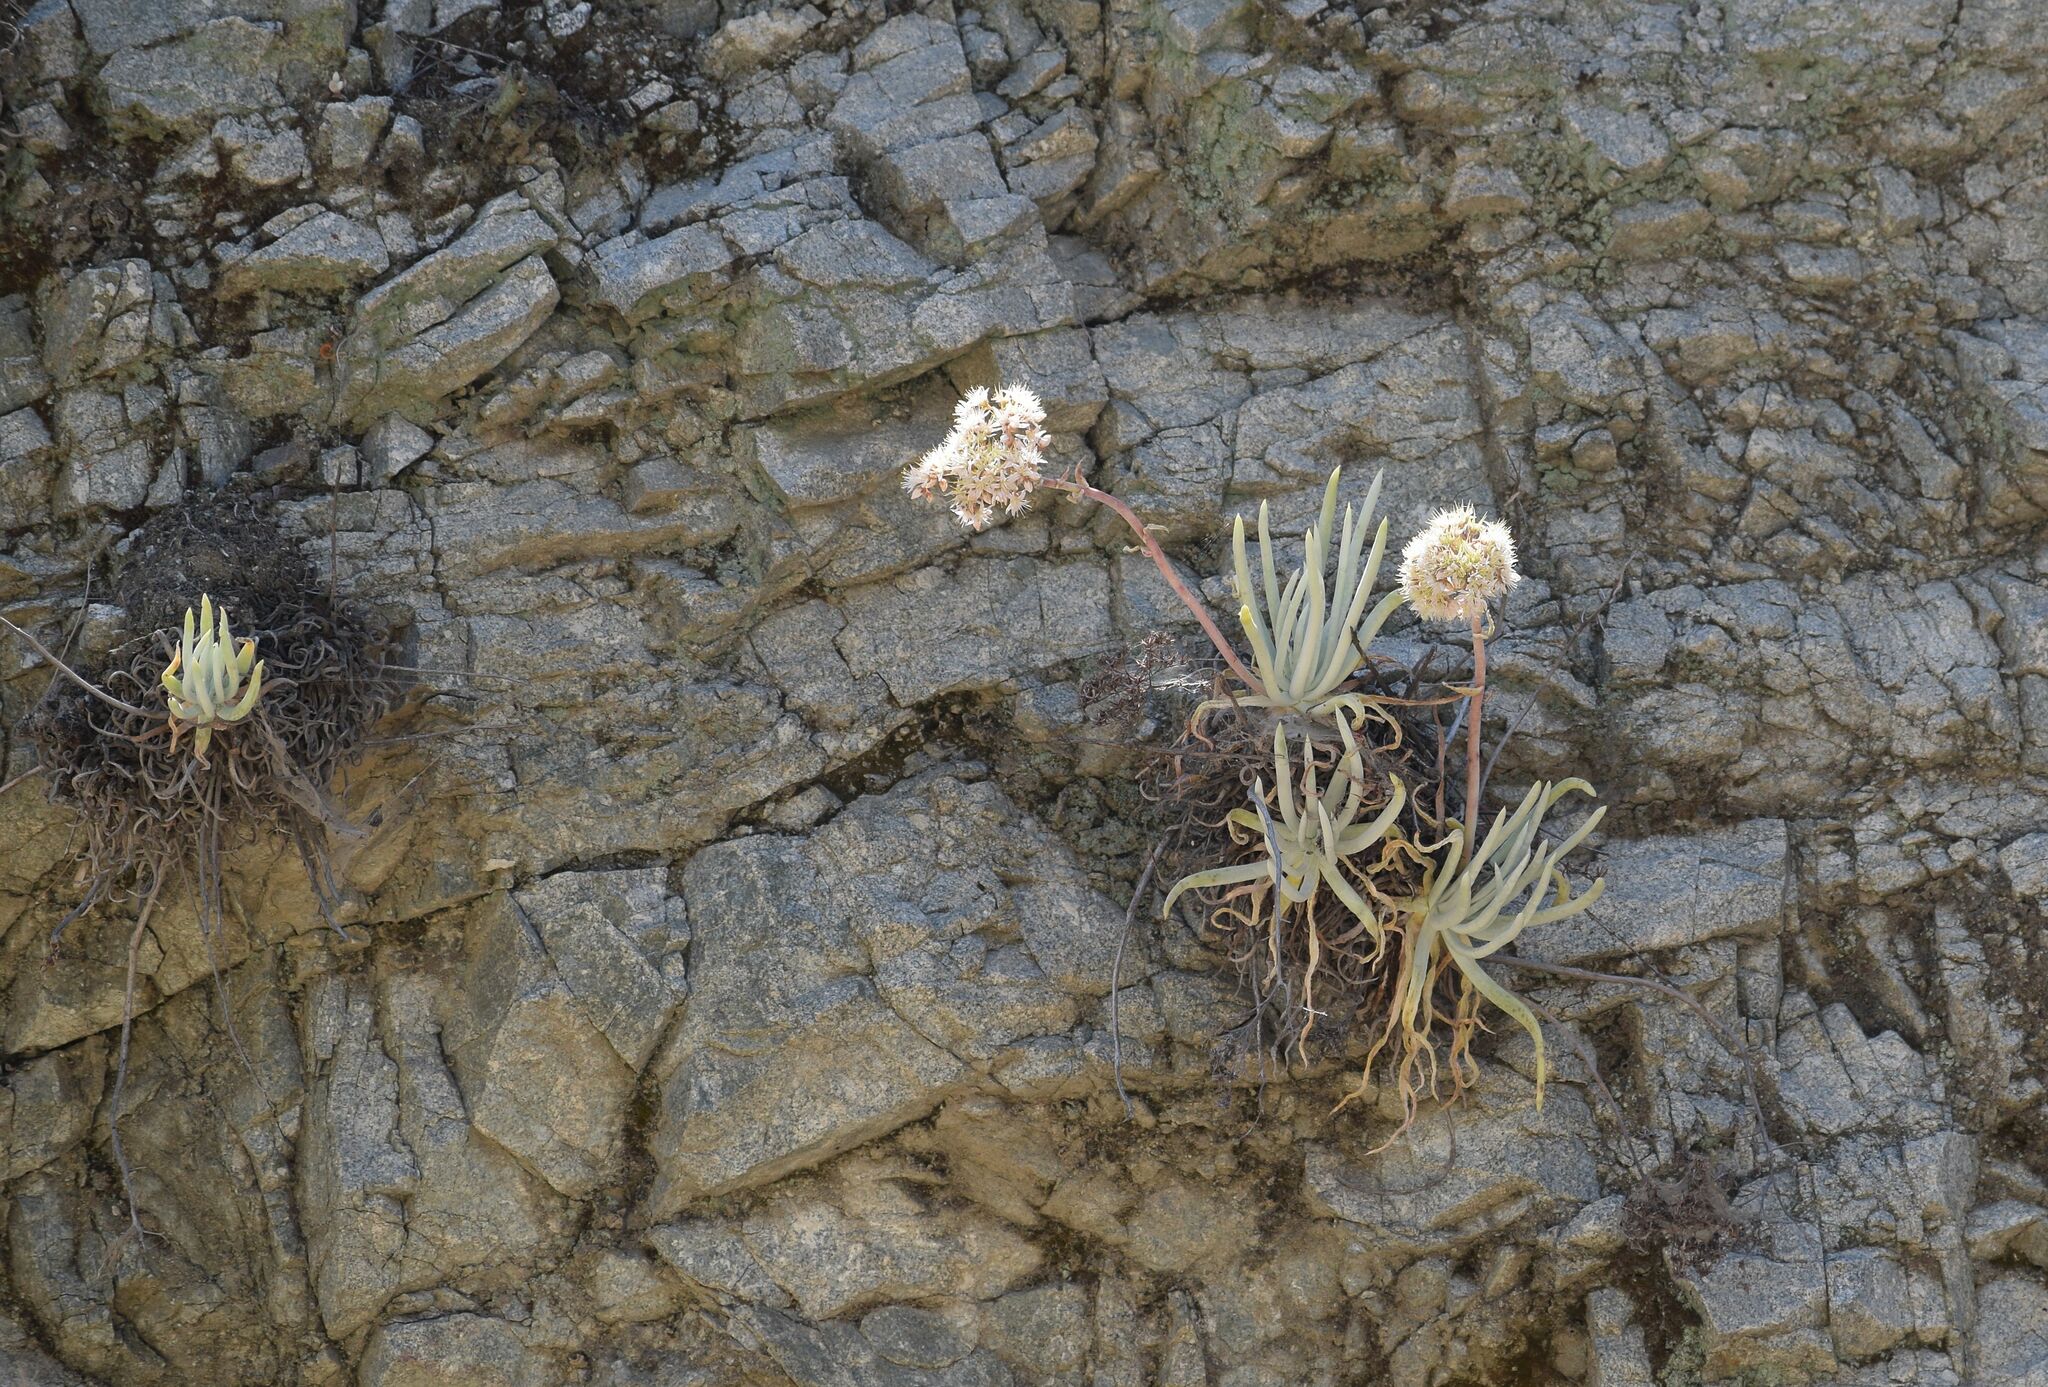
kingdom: Plantae
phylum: Tracheophyta
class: Magnoliopsida
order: Saxifragales
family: Crassulaceae
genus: Dudleya
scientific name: Dudleya densiflora
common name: San gabriel mountains dudleya
